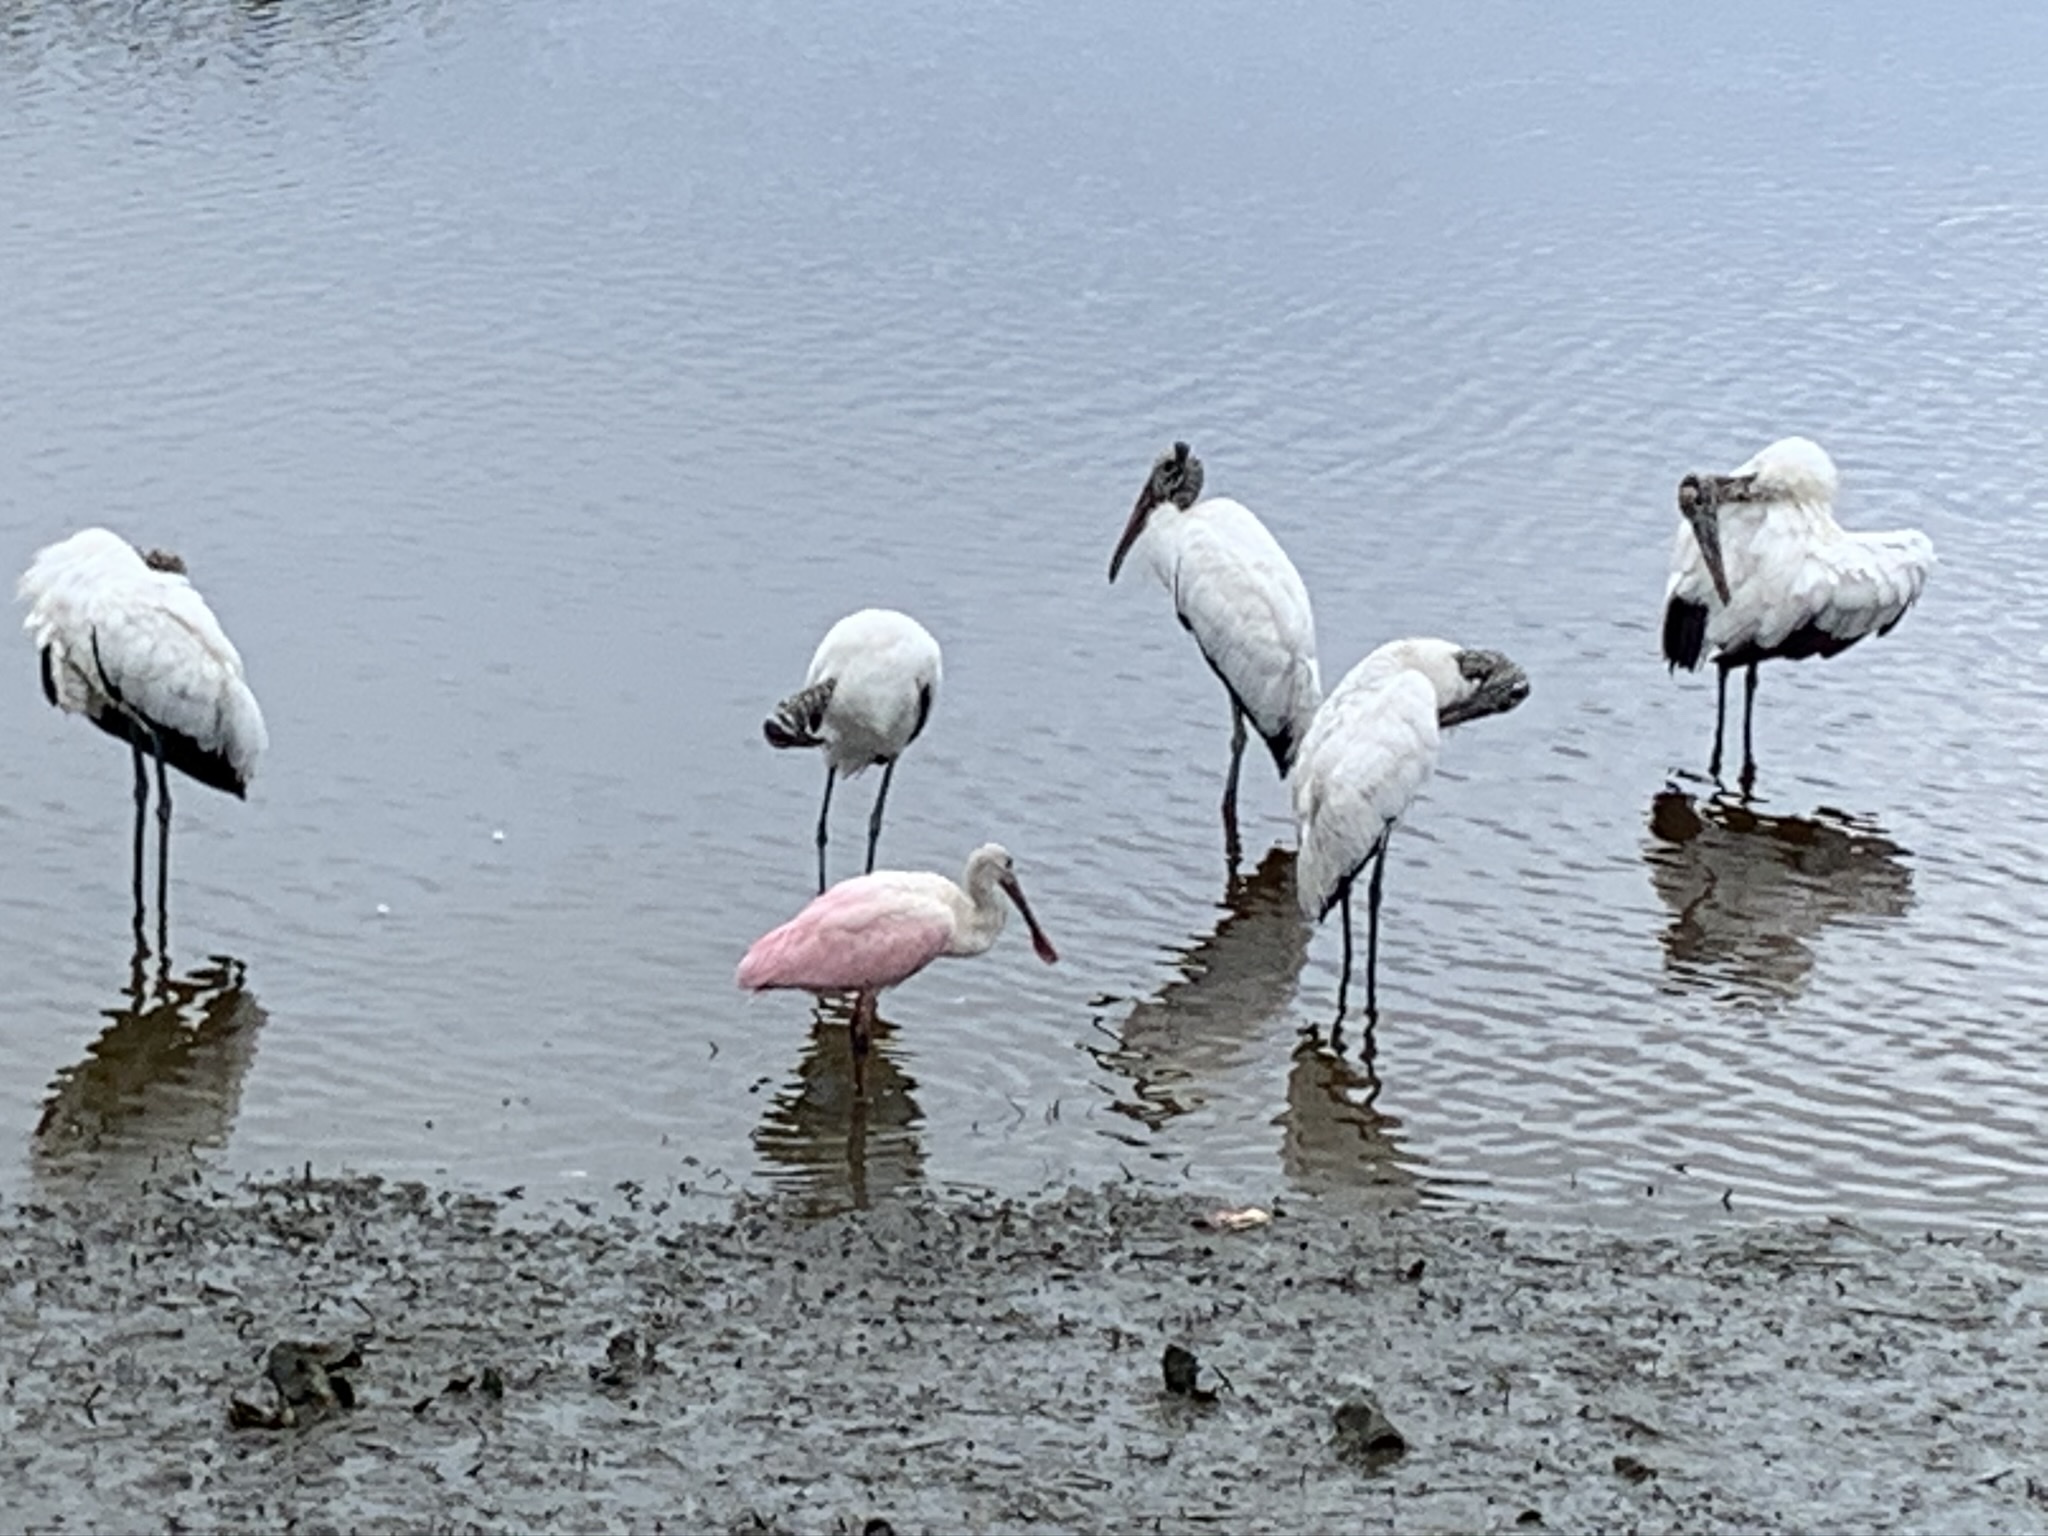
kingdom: Animalia
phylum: Chordata
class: Aves
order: Pelecaniformes
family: Threskiornithidae
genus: Platalea
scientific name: Platalea ajaja
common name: Roseate spoonbill
